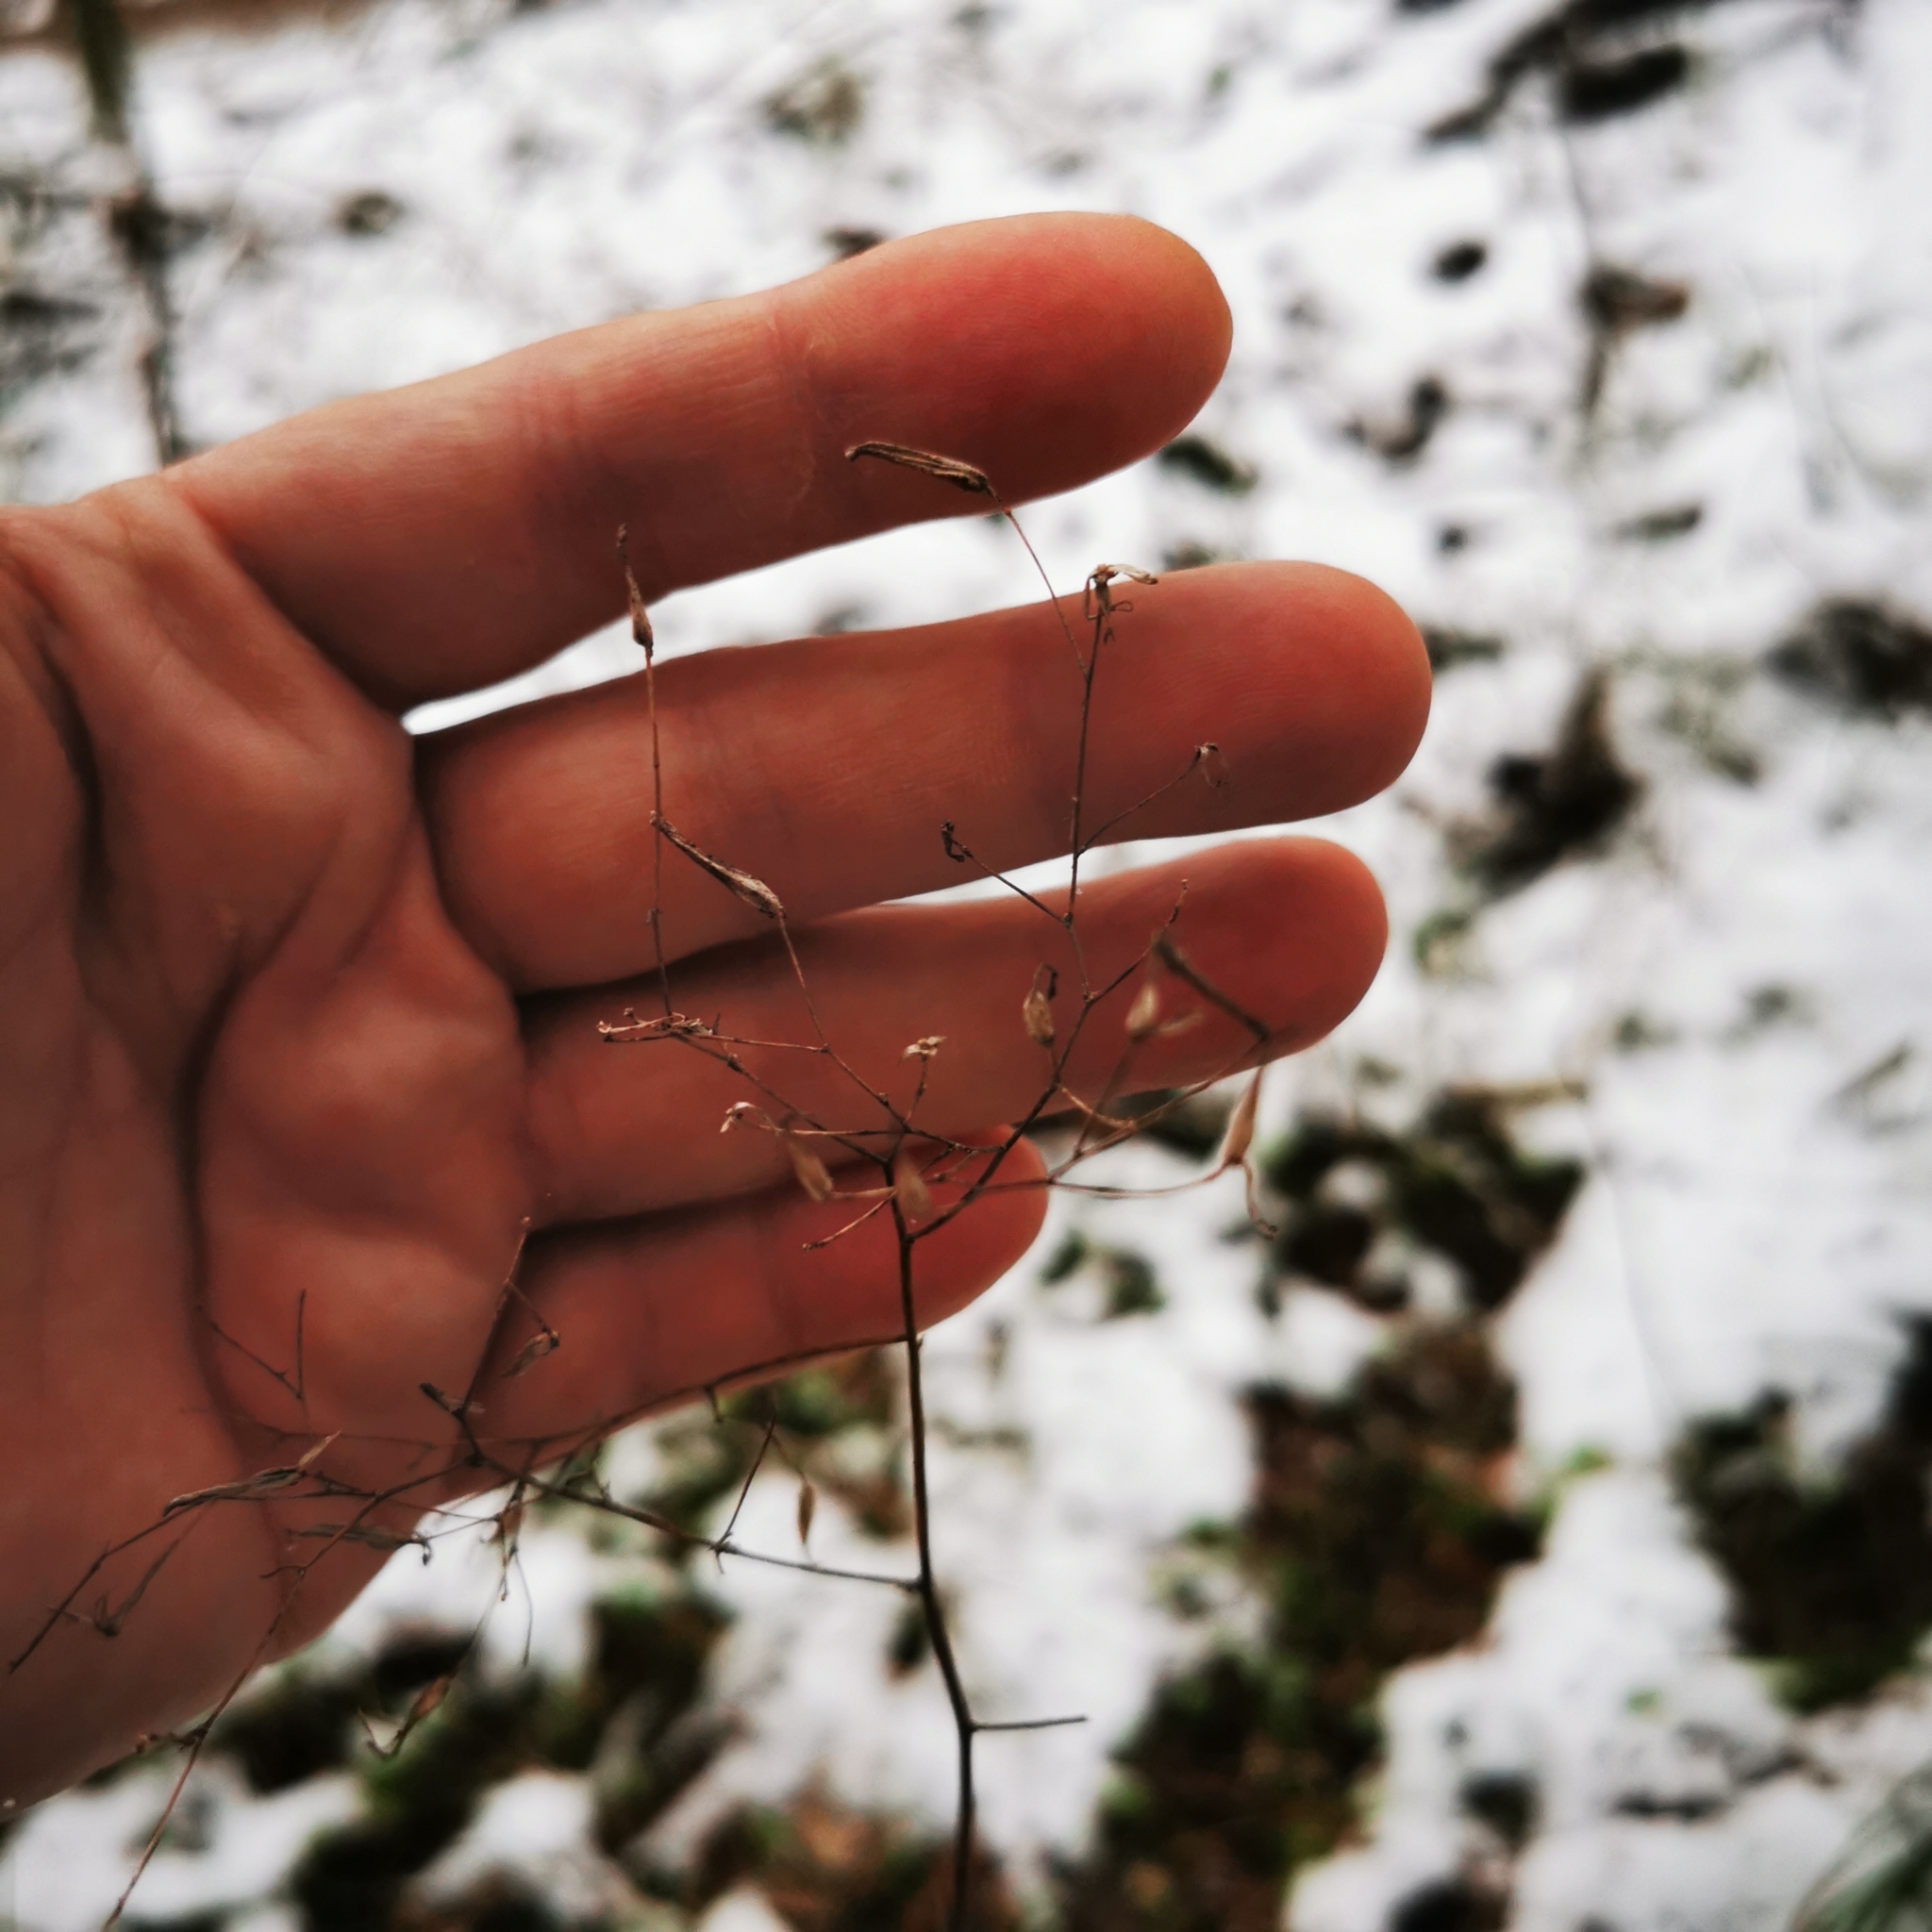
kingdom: Plantae
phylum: Tracheophyta
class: Magnoliopsida
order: Asterales
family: Asteraceae
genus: Mycelis
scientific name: Mycelis muralis
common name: Wall lettuce
